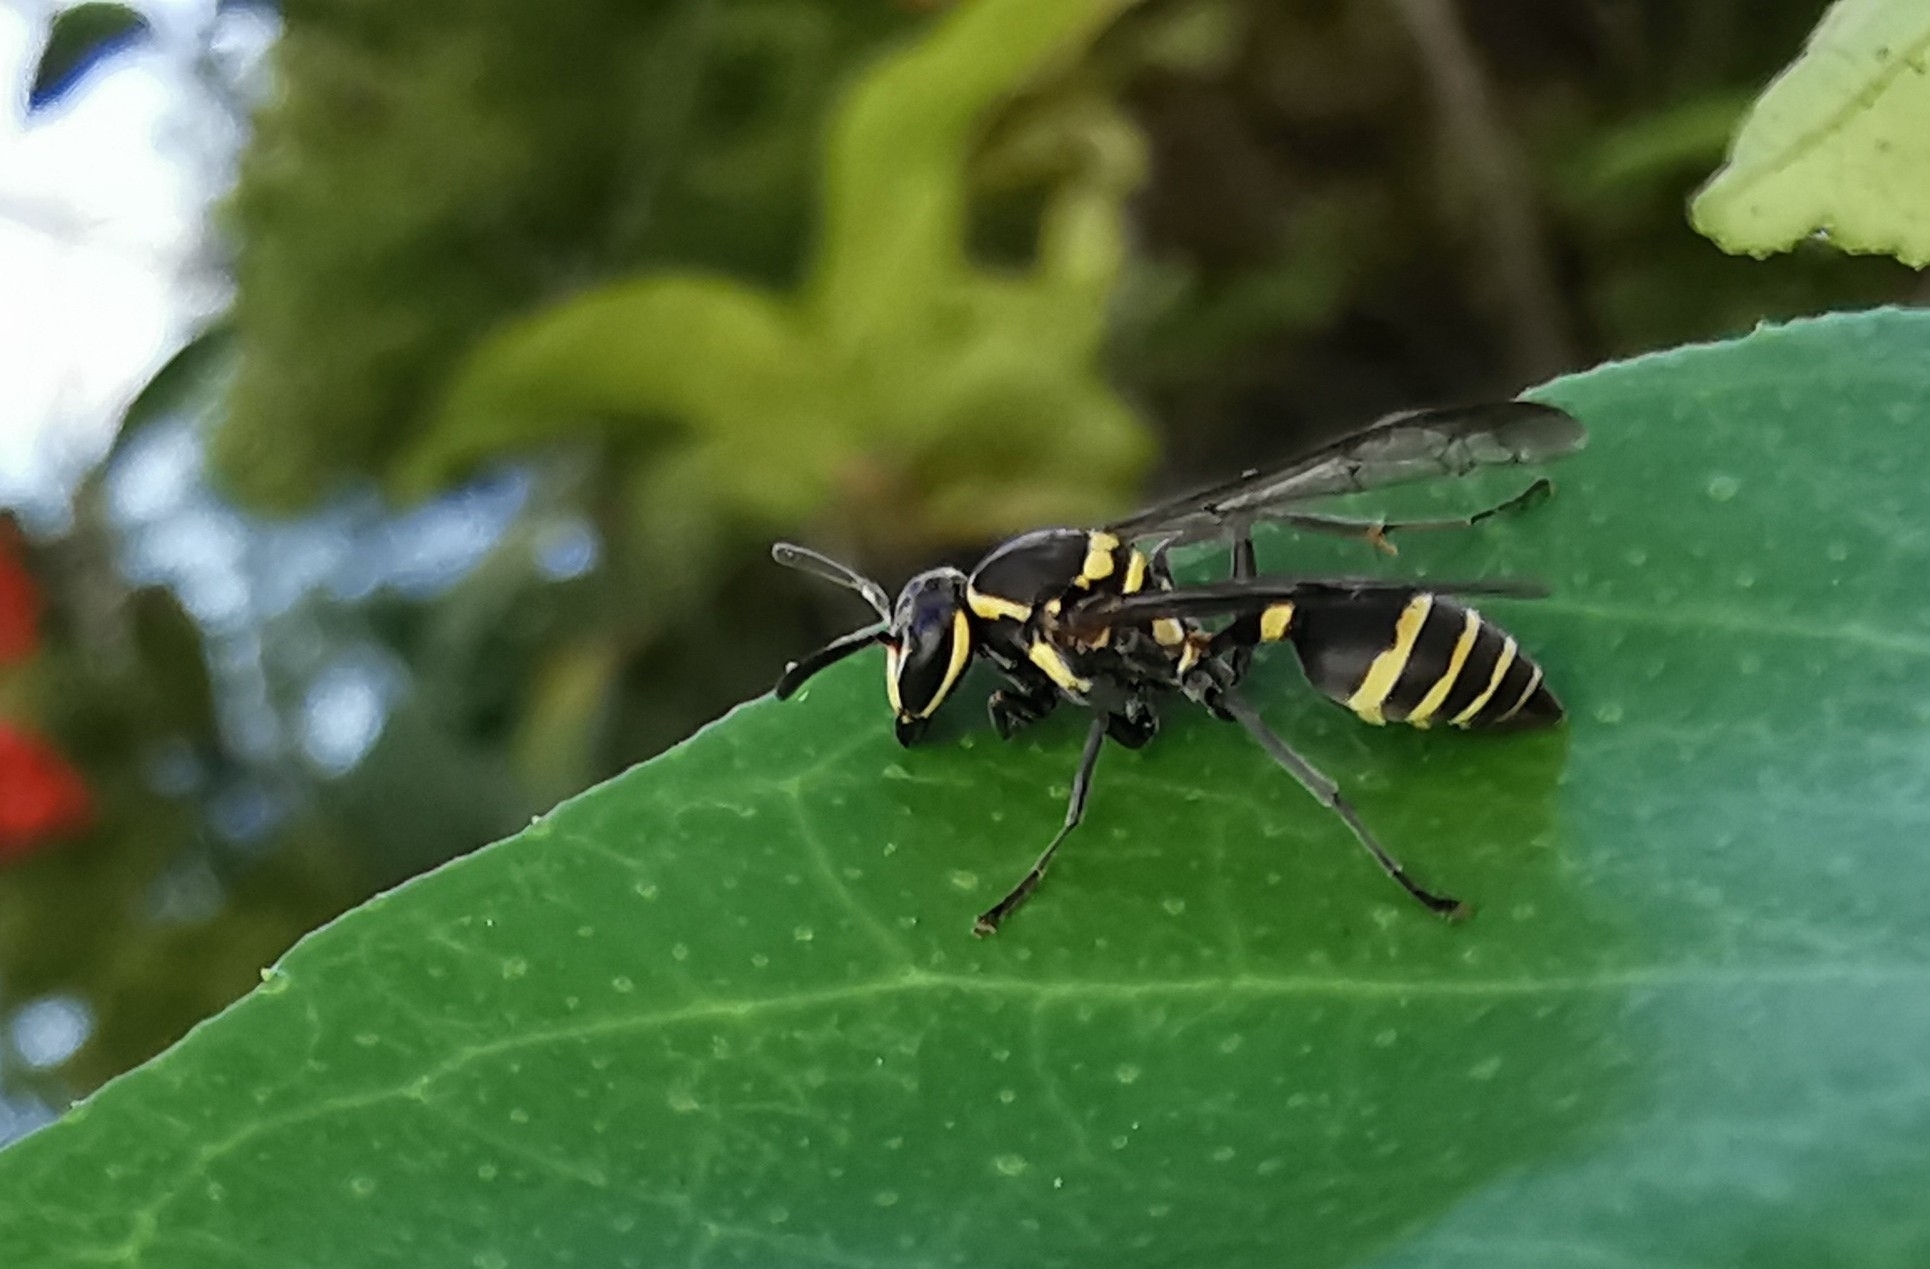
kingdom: Animalia
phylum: Arthropoda
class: Insecta
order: Hymenoptera
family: Eumenidae
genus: Polybia
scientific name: Polybia occidentalis
